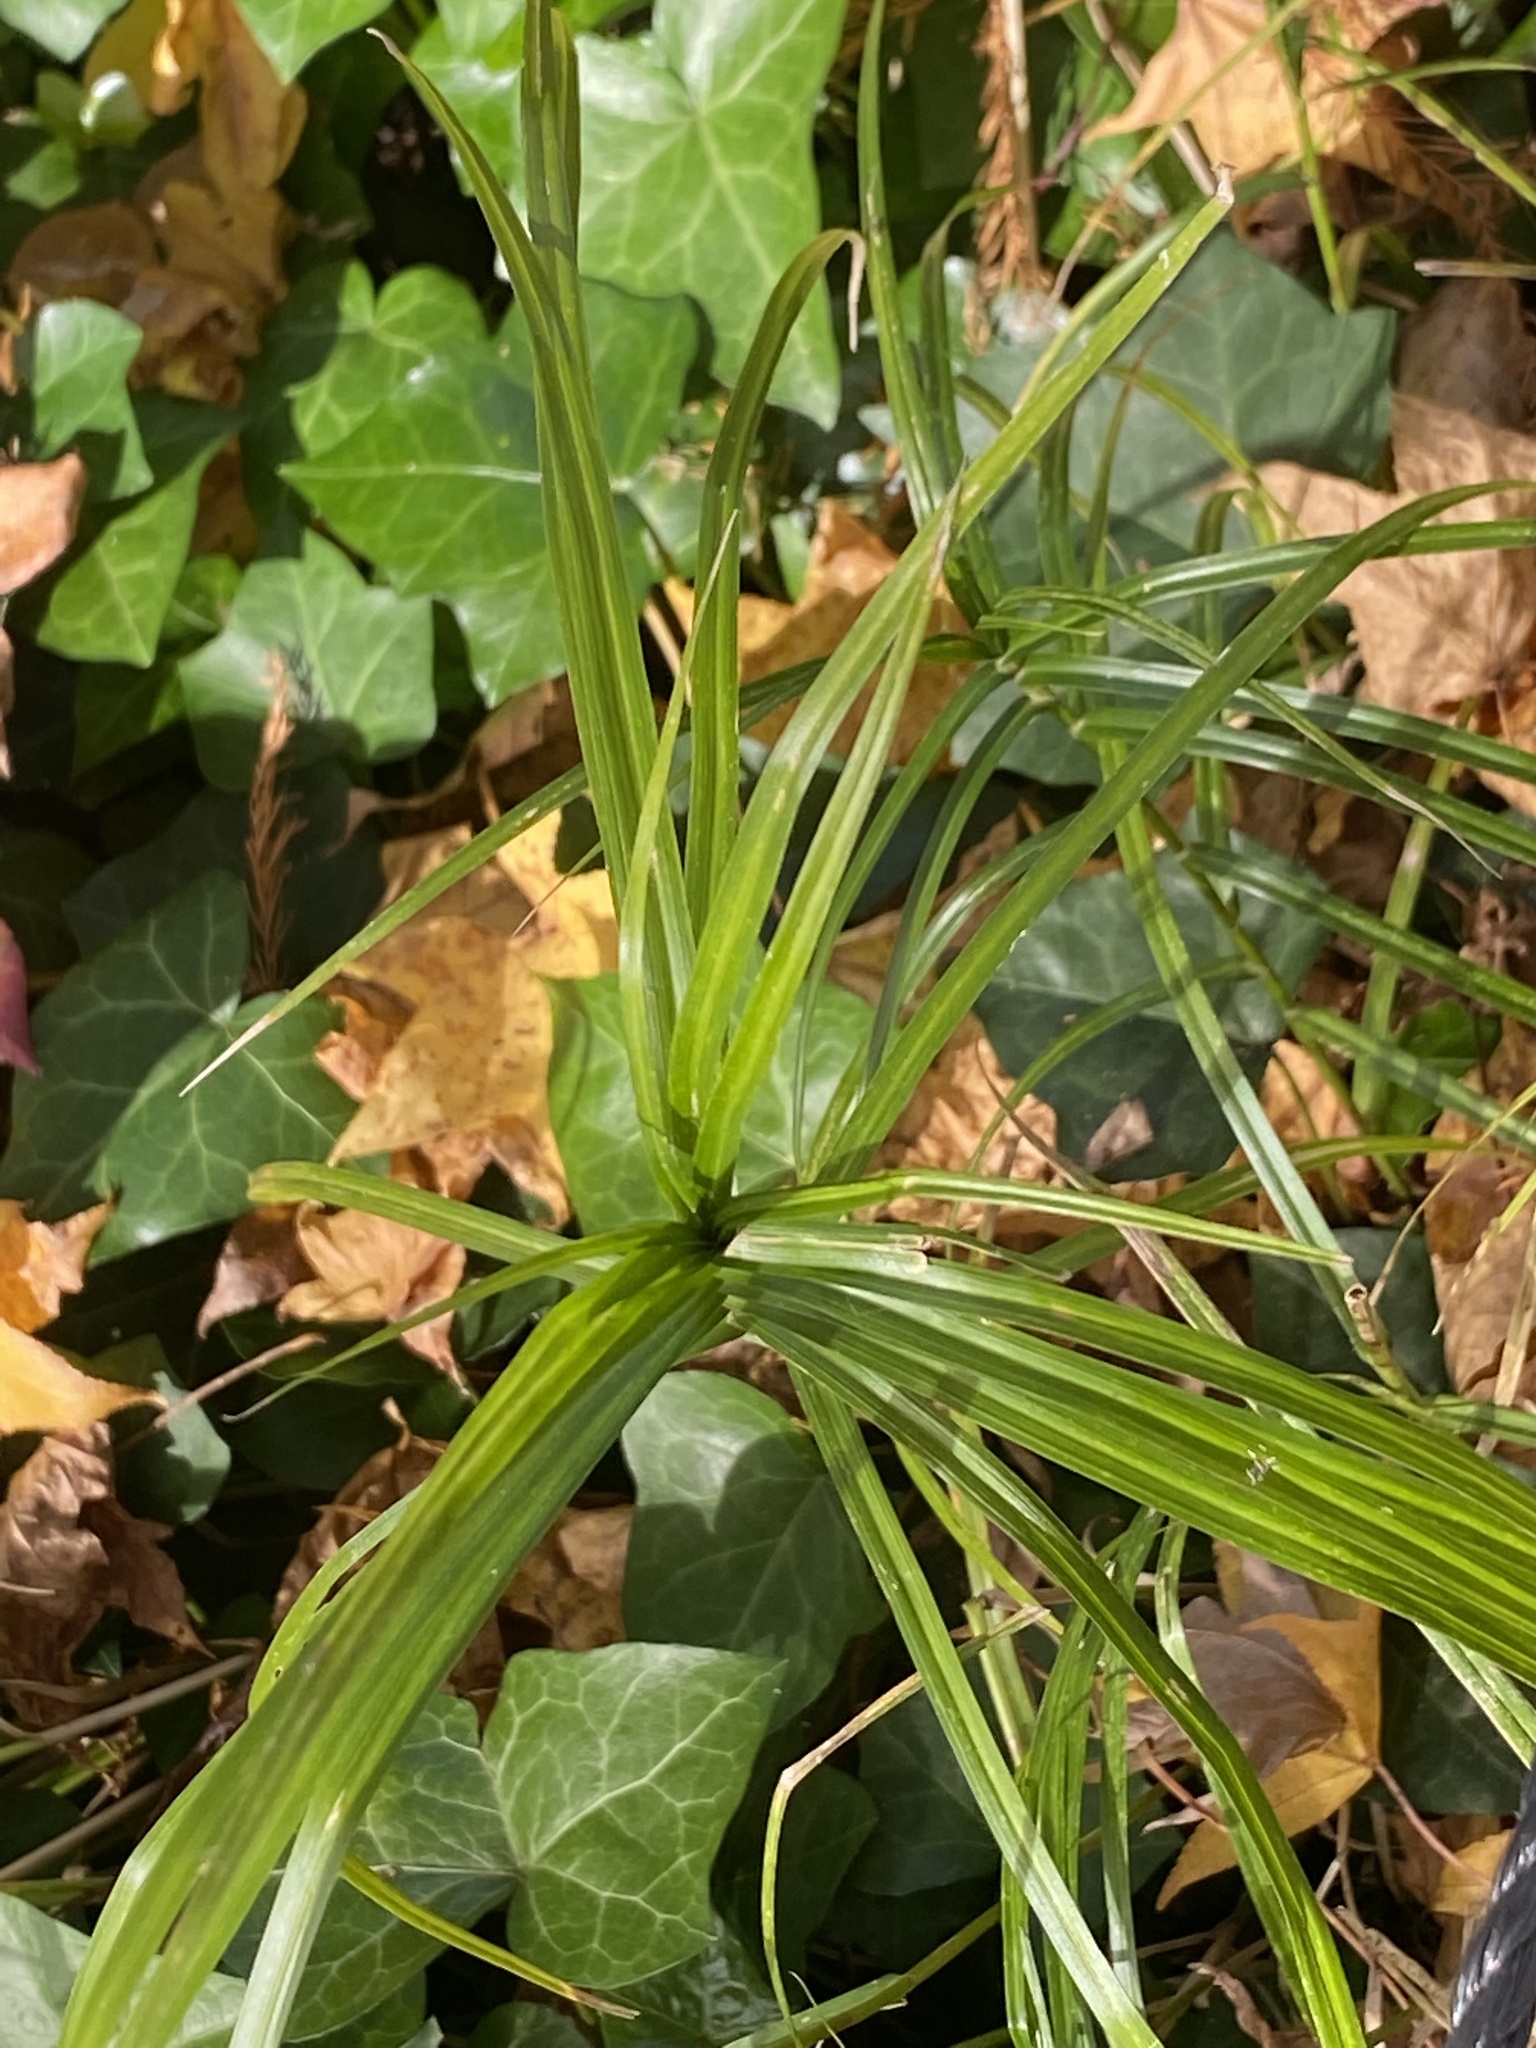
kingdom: Plantae
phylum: Tracheophyta
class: Liliopsida
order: Poales
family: Cyperaceae
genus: Dulichium
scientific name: Dulichium arundinaceum
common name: Three-way sedge
